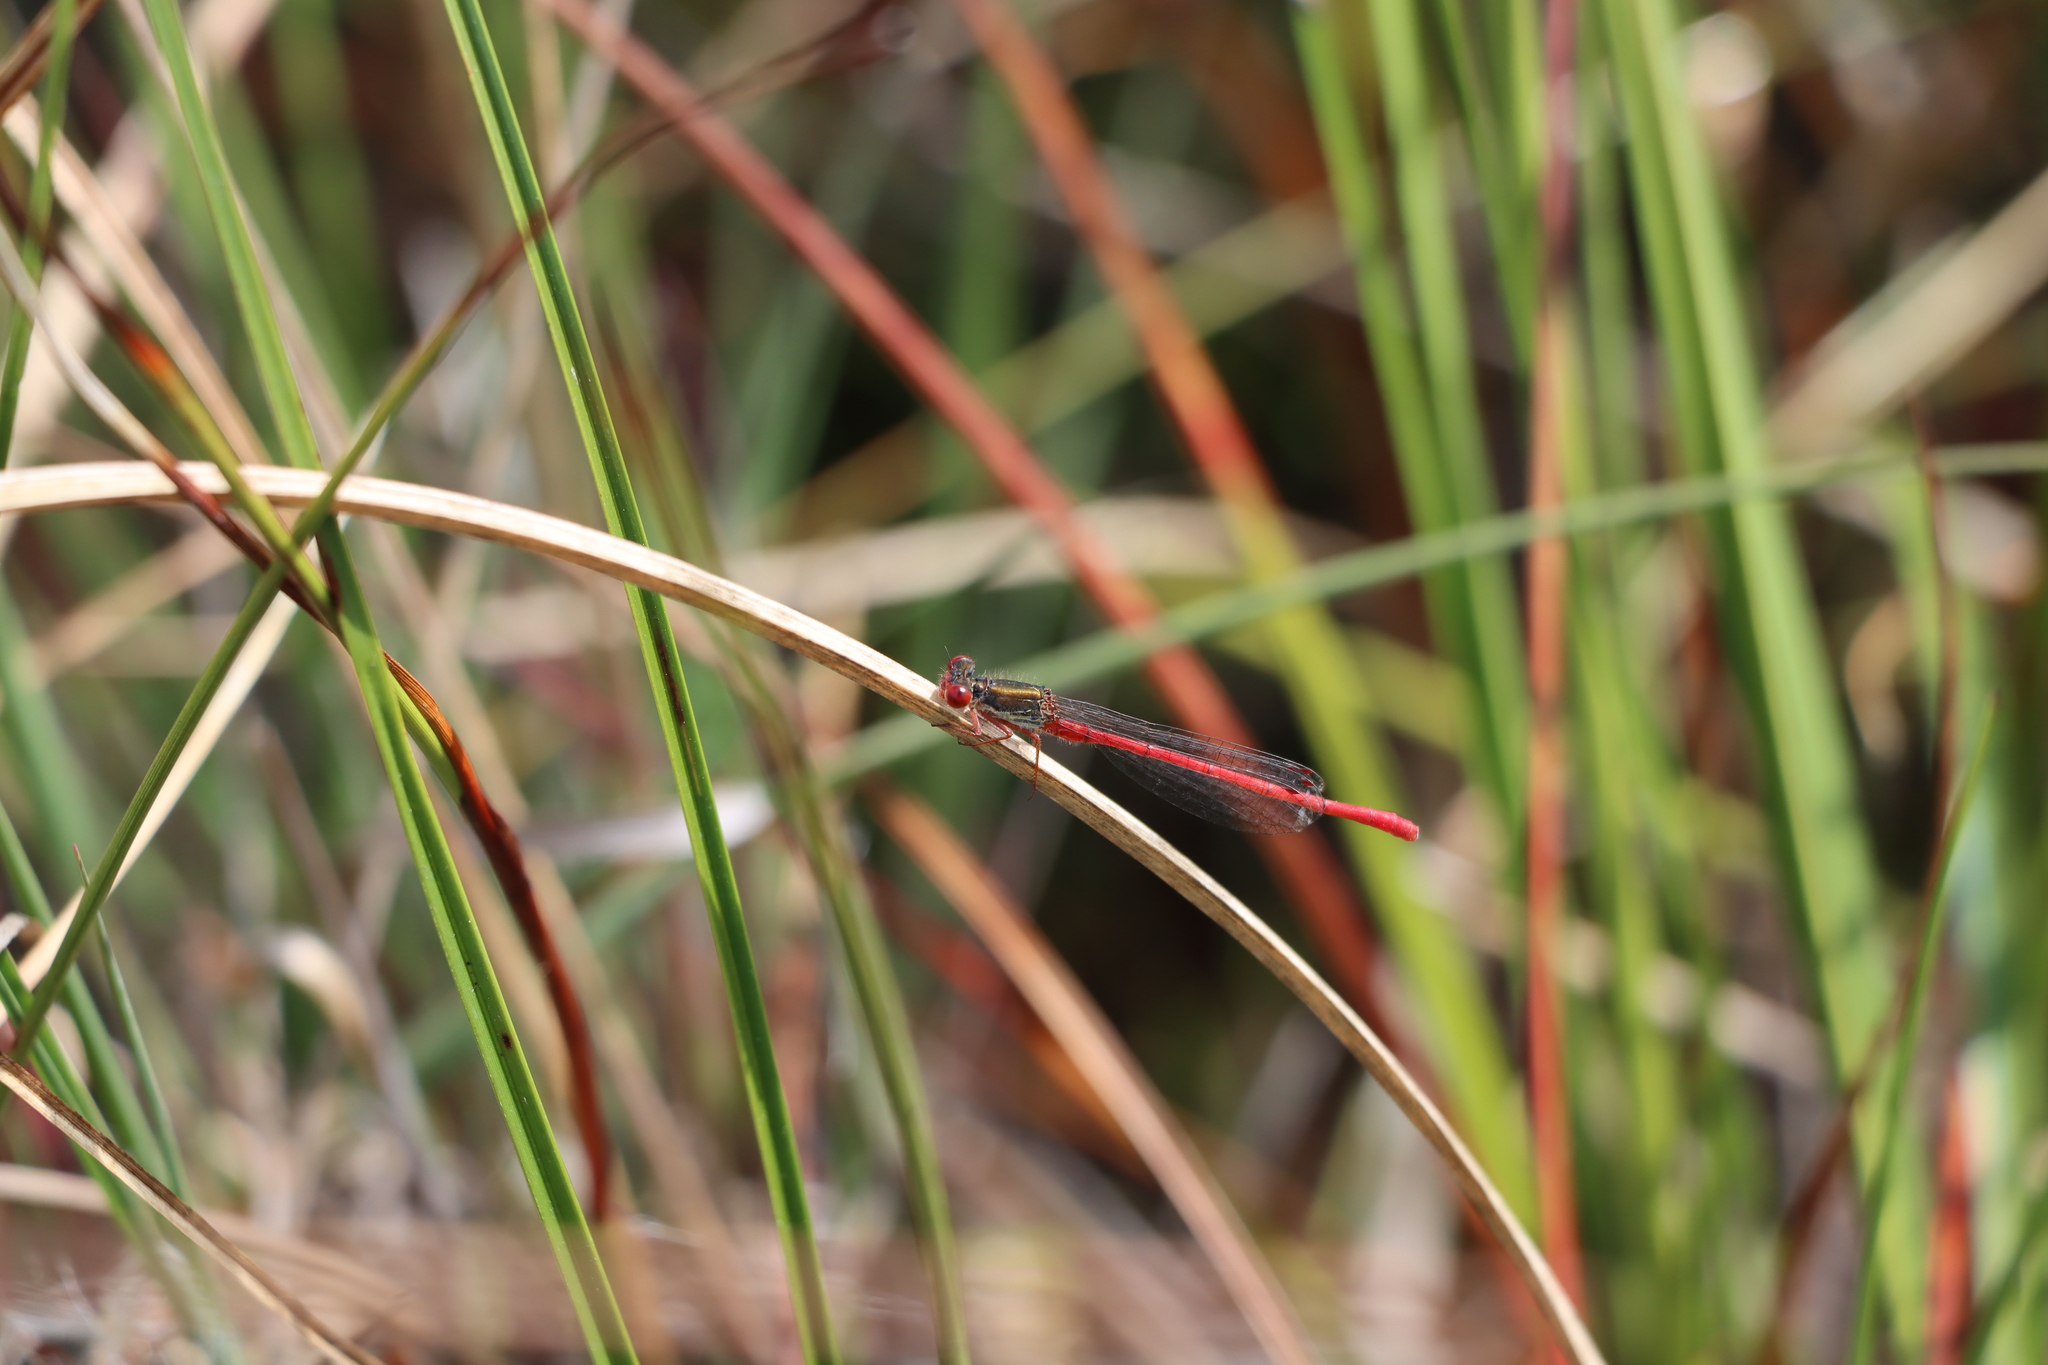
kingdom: Animalia
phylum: Arthropoda
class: Insecta
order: Odonata
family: Coenagrionidae
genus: Ceriagrion
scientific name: Ceriagrion tenellum
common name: Small red damselfly
